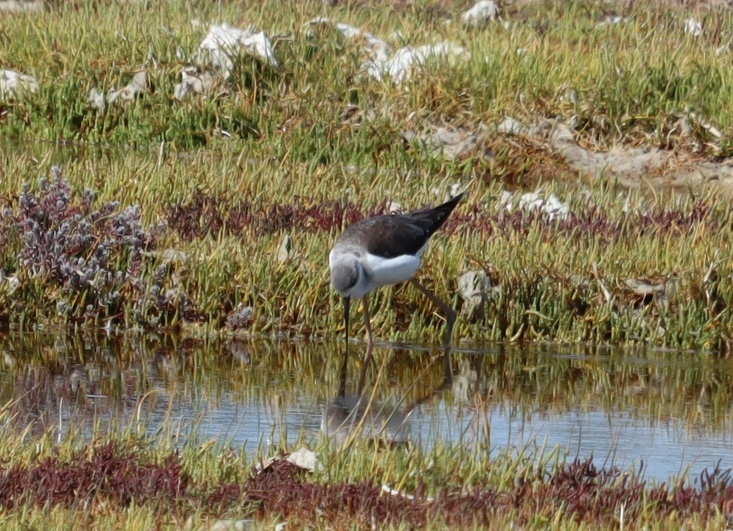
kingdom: Animalia
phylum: Chordata
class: Aves
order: Charadriiformes
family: Recurvirostridae
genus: Himantopus
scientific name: Himantopus himantopus
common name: Black-winged stilt
